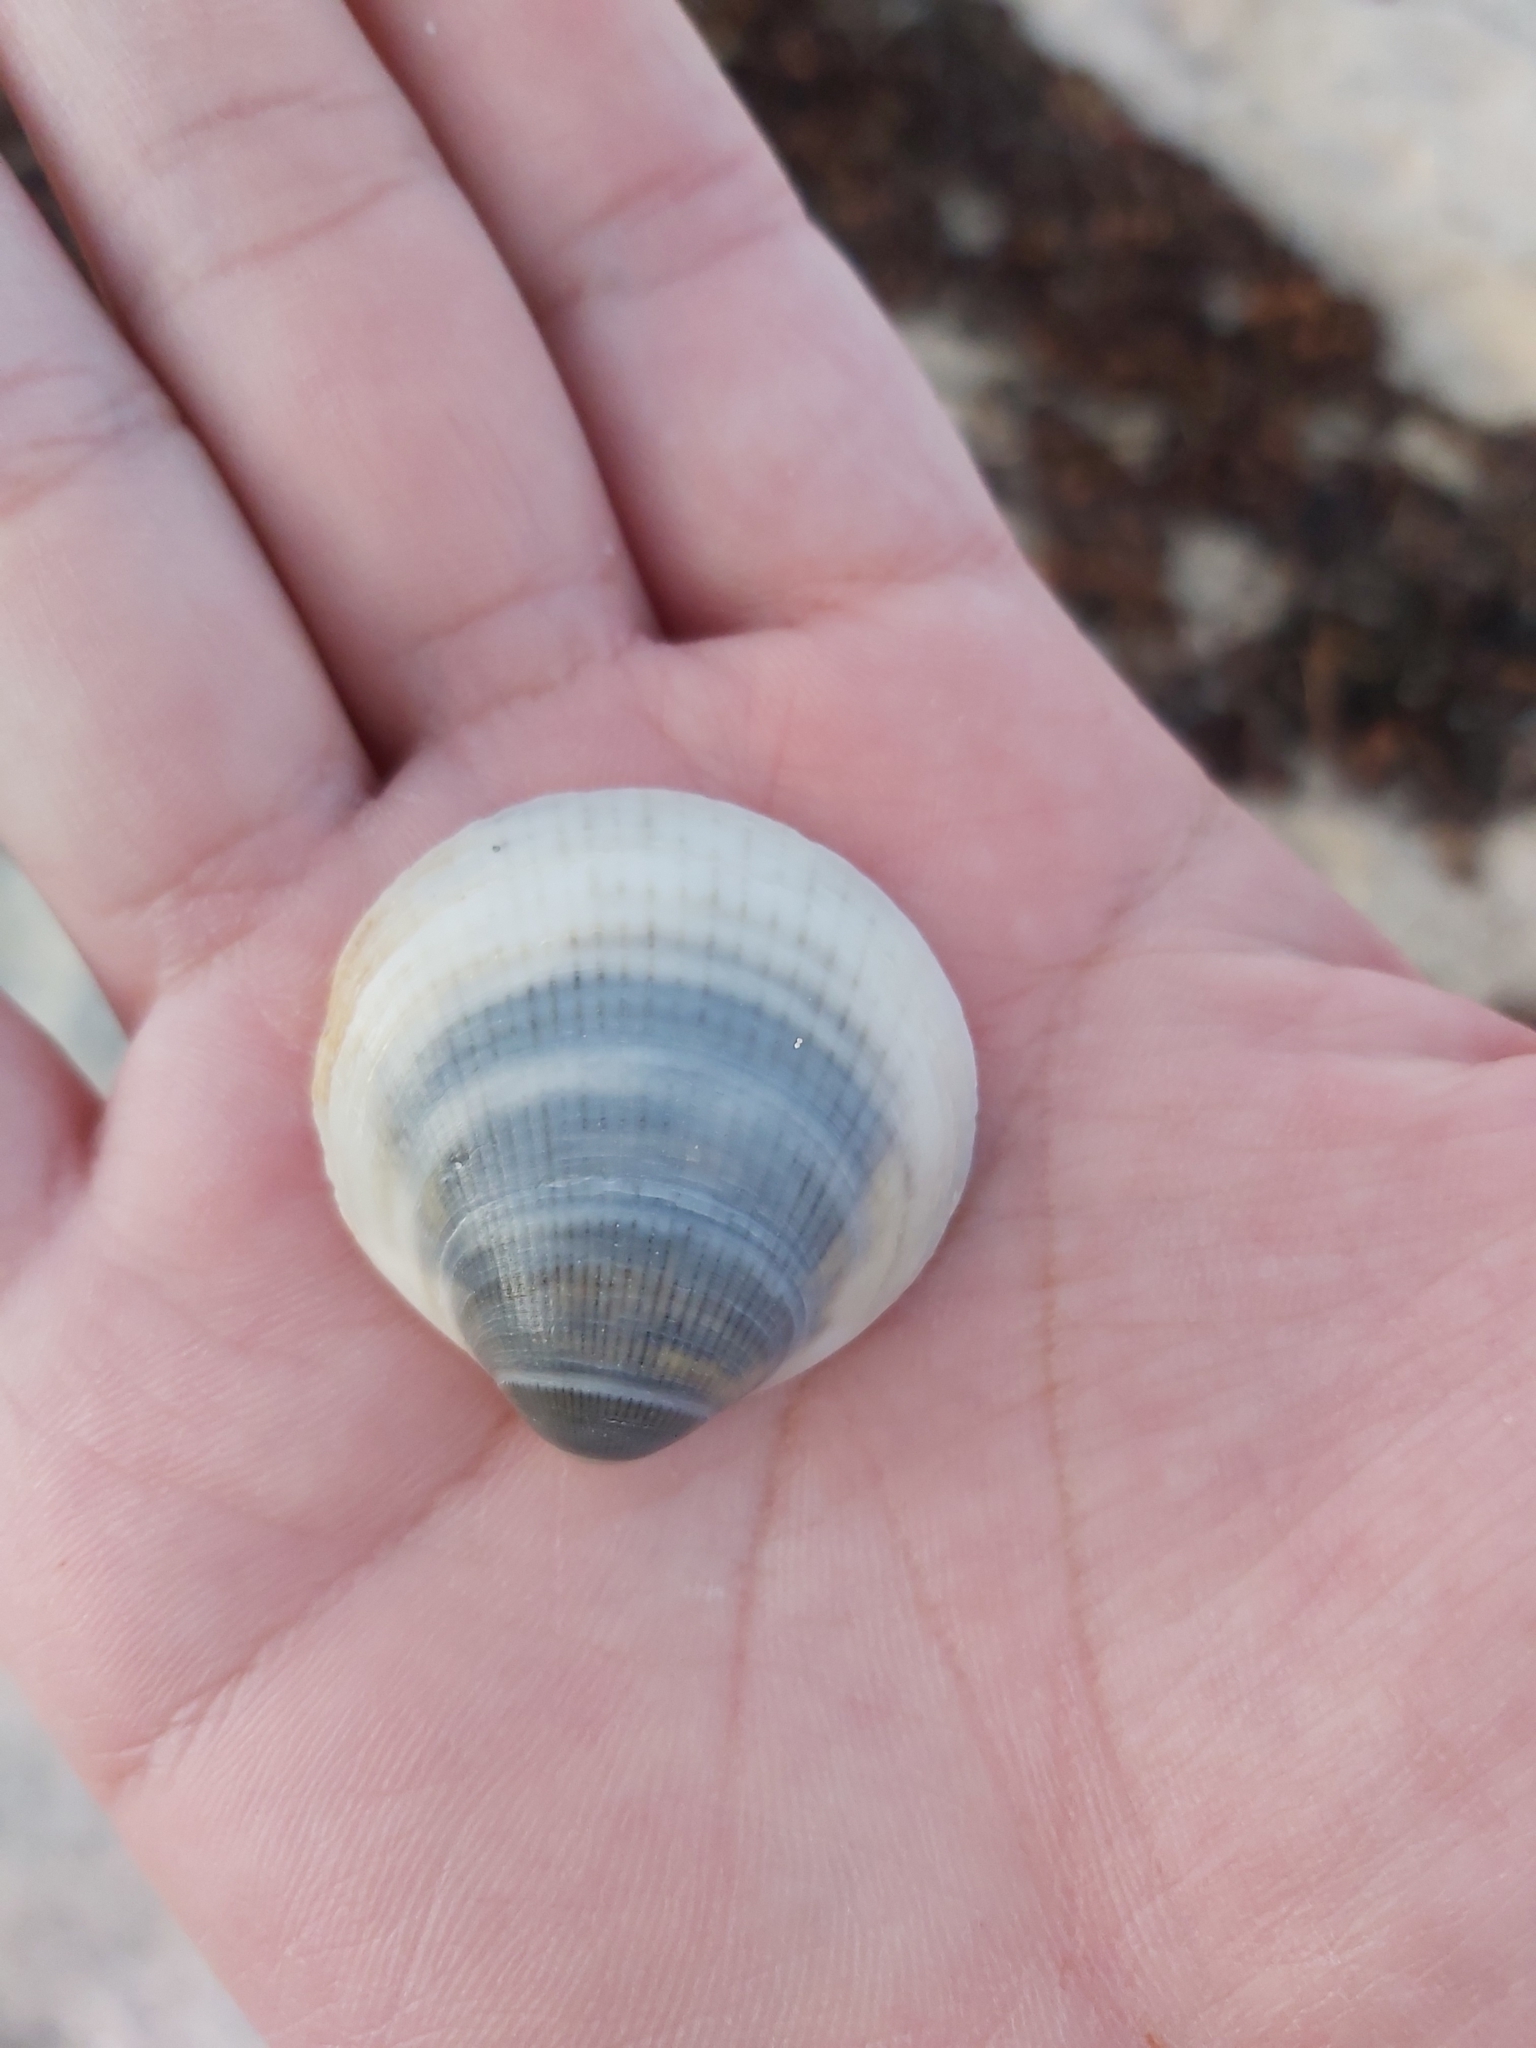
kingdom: Animalia
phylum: Mollusca
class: Bivalvia
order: Arcida
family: Glycymerididae
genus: Glycymeris
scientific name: Glycymeris grayana
